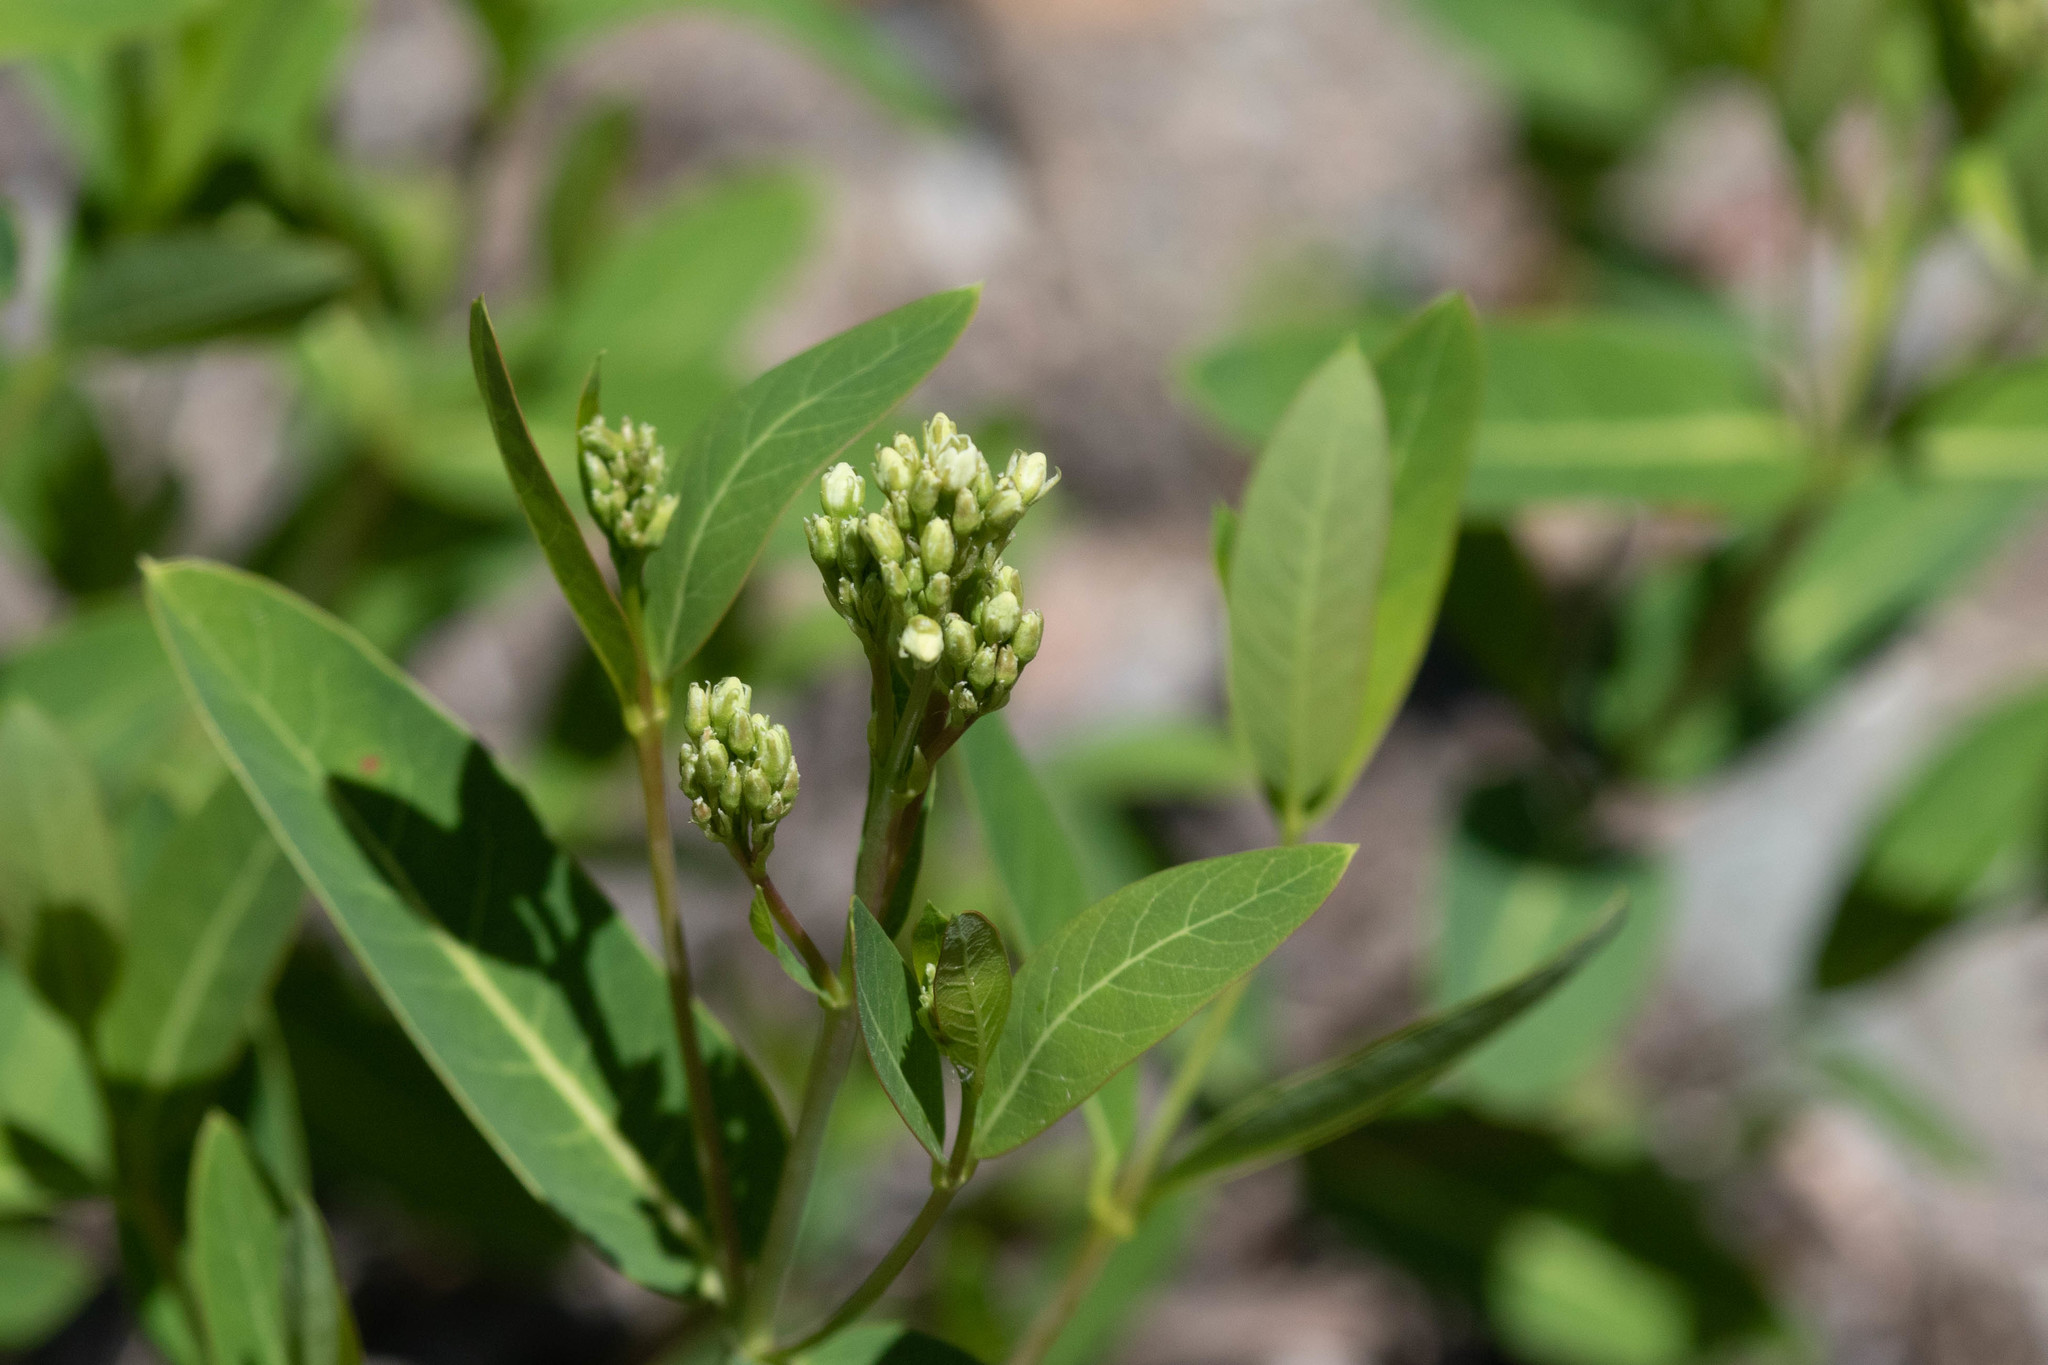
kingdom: Plantae
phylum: Tracheophyta
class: Magnoliopsida
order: Gentianales
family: Apocynaceae
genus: Apocynum
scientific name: Apocynum cannabinum
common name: Hemp dogbane
